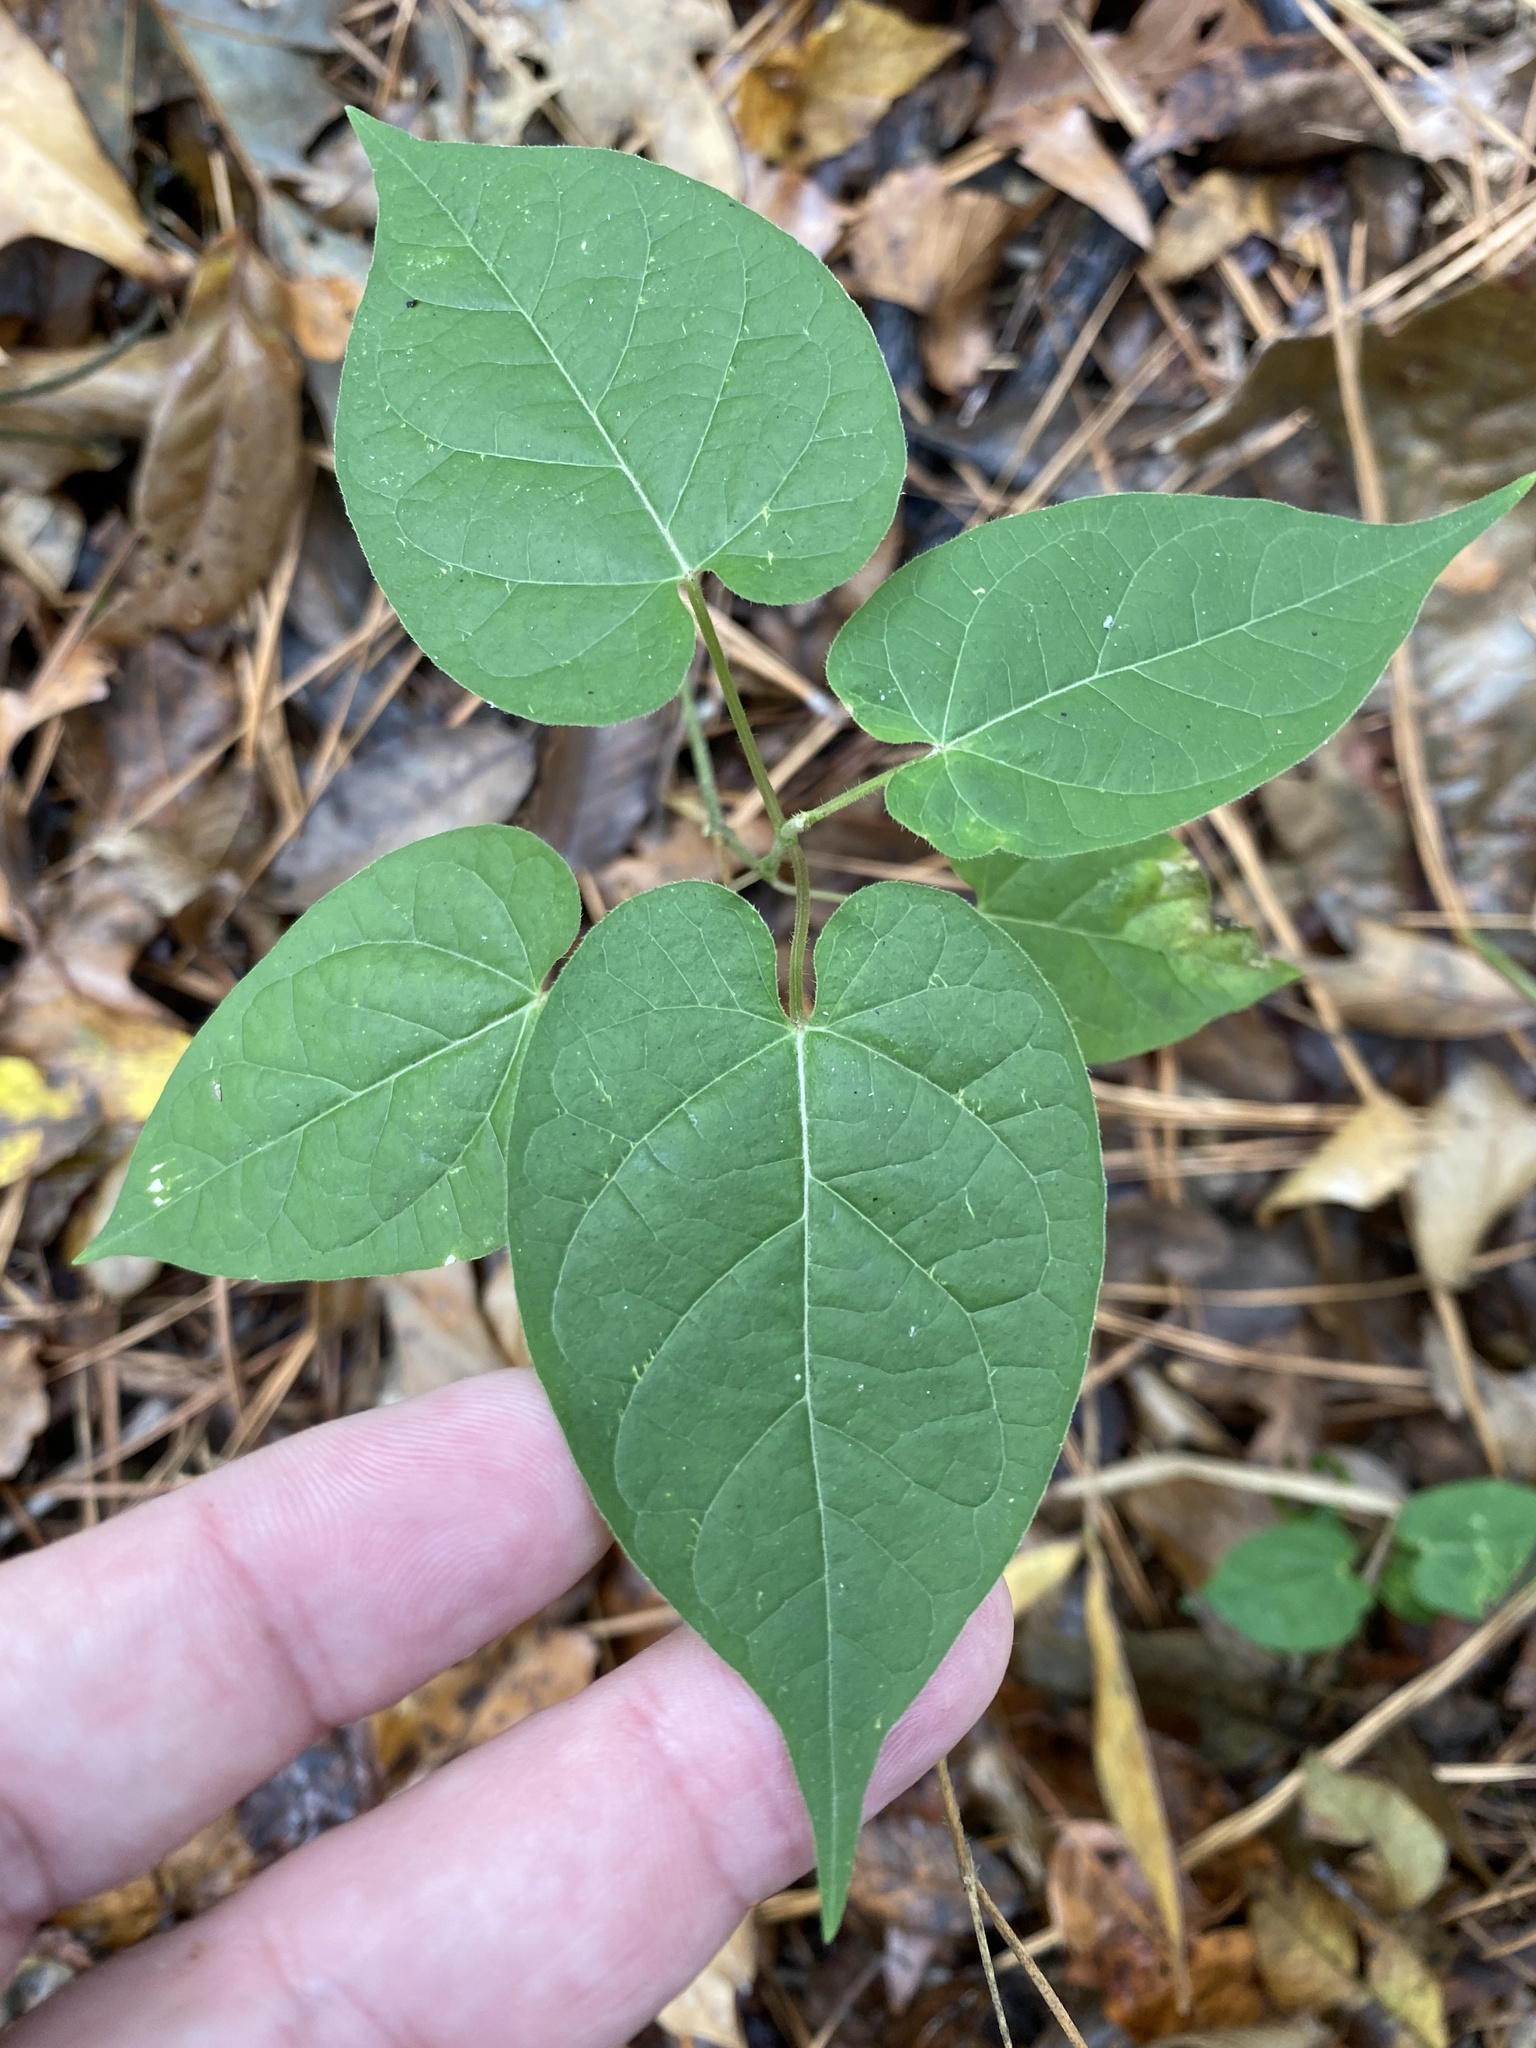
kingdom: Plantae
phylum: Tracheophyta
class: Magnoliopsida
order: Gentianales
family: Apocynaceae
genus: Gonolobus
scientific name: Gonolobus suberosus
